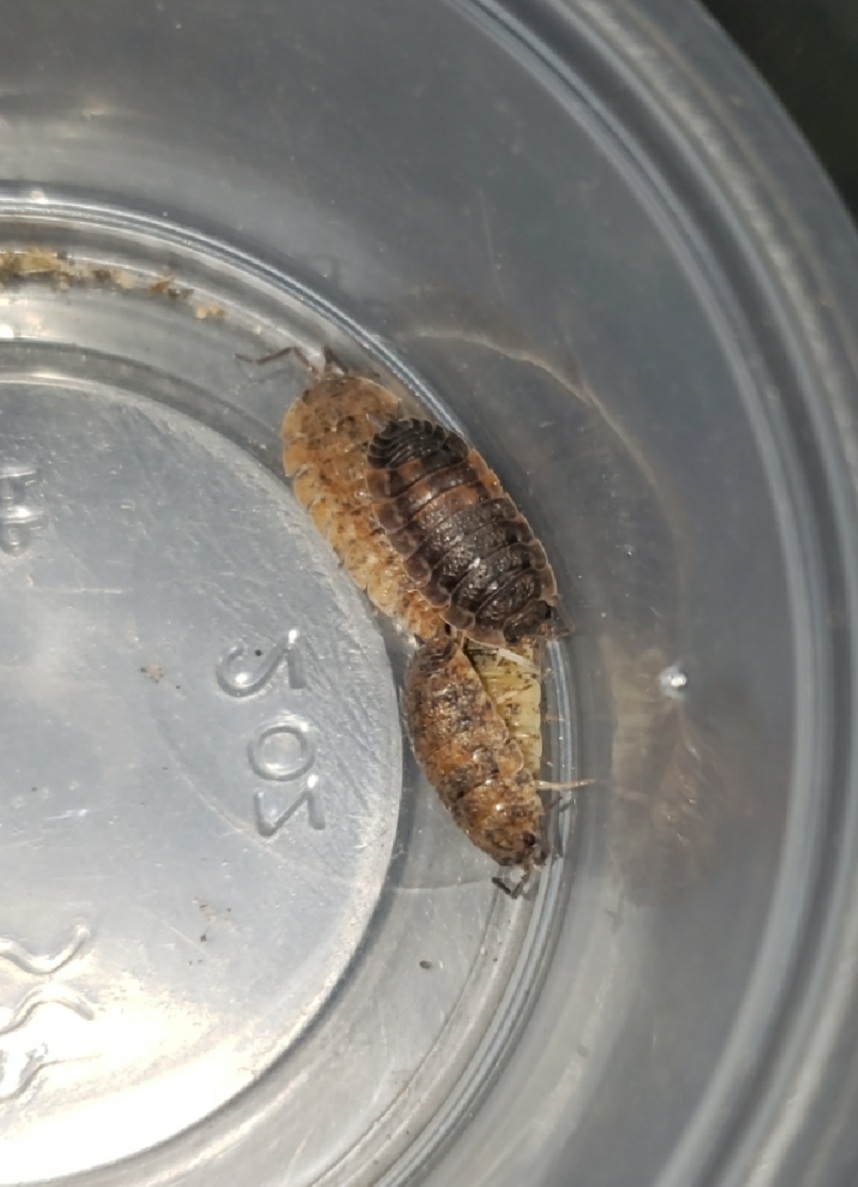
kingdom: Animalia
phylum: Arthropoda
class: Malacostraca
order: Isopoda
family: Porcellionidae
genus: Porcellio
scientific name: Porcellio scaber
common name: Common rough woodlouse
